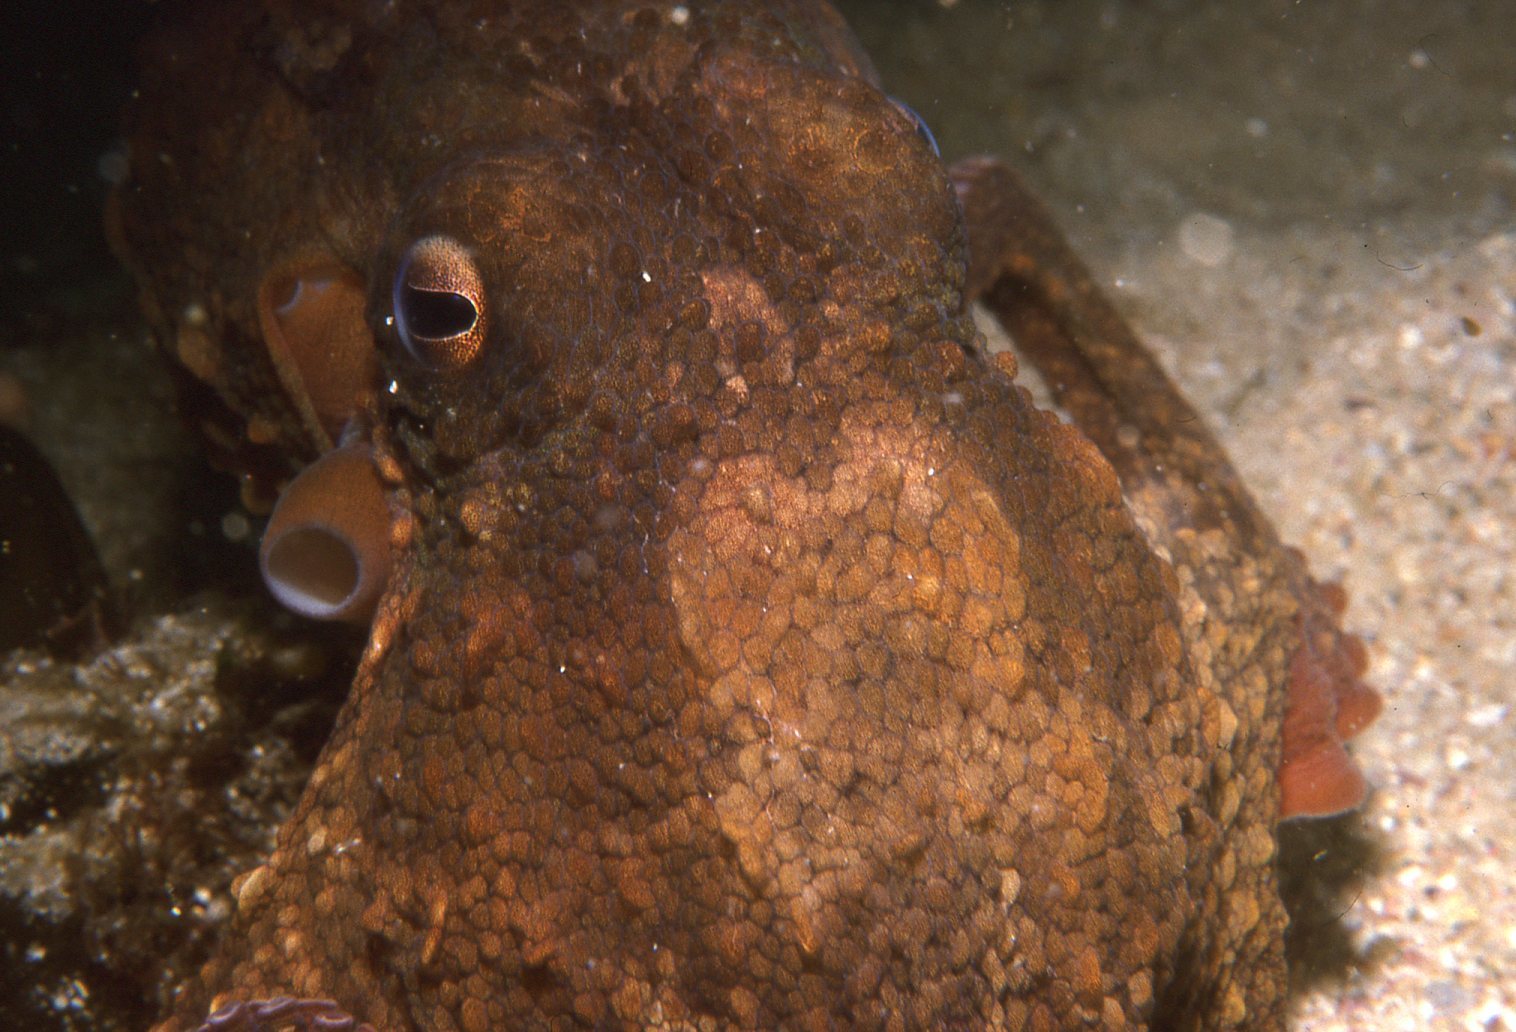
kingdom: Animalia
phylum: Mollusca
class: Cephalopoda
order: Octopoda
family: Octopodidae
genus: Octopus
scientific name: Octopus tetricus
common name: Sydney octopus
